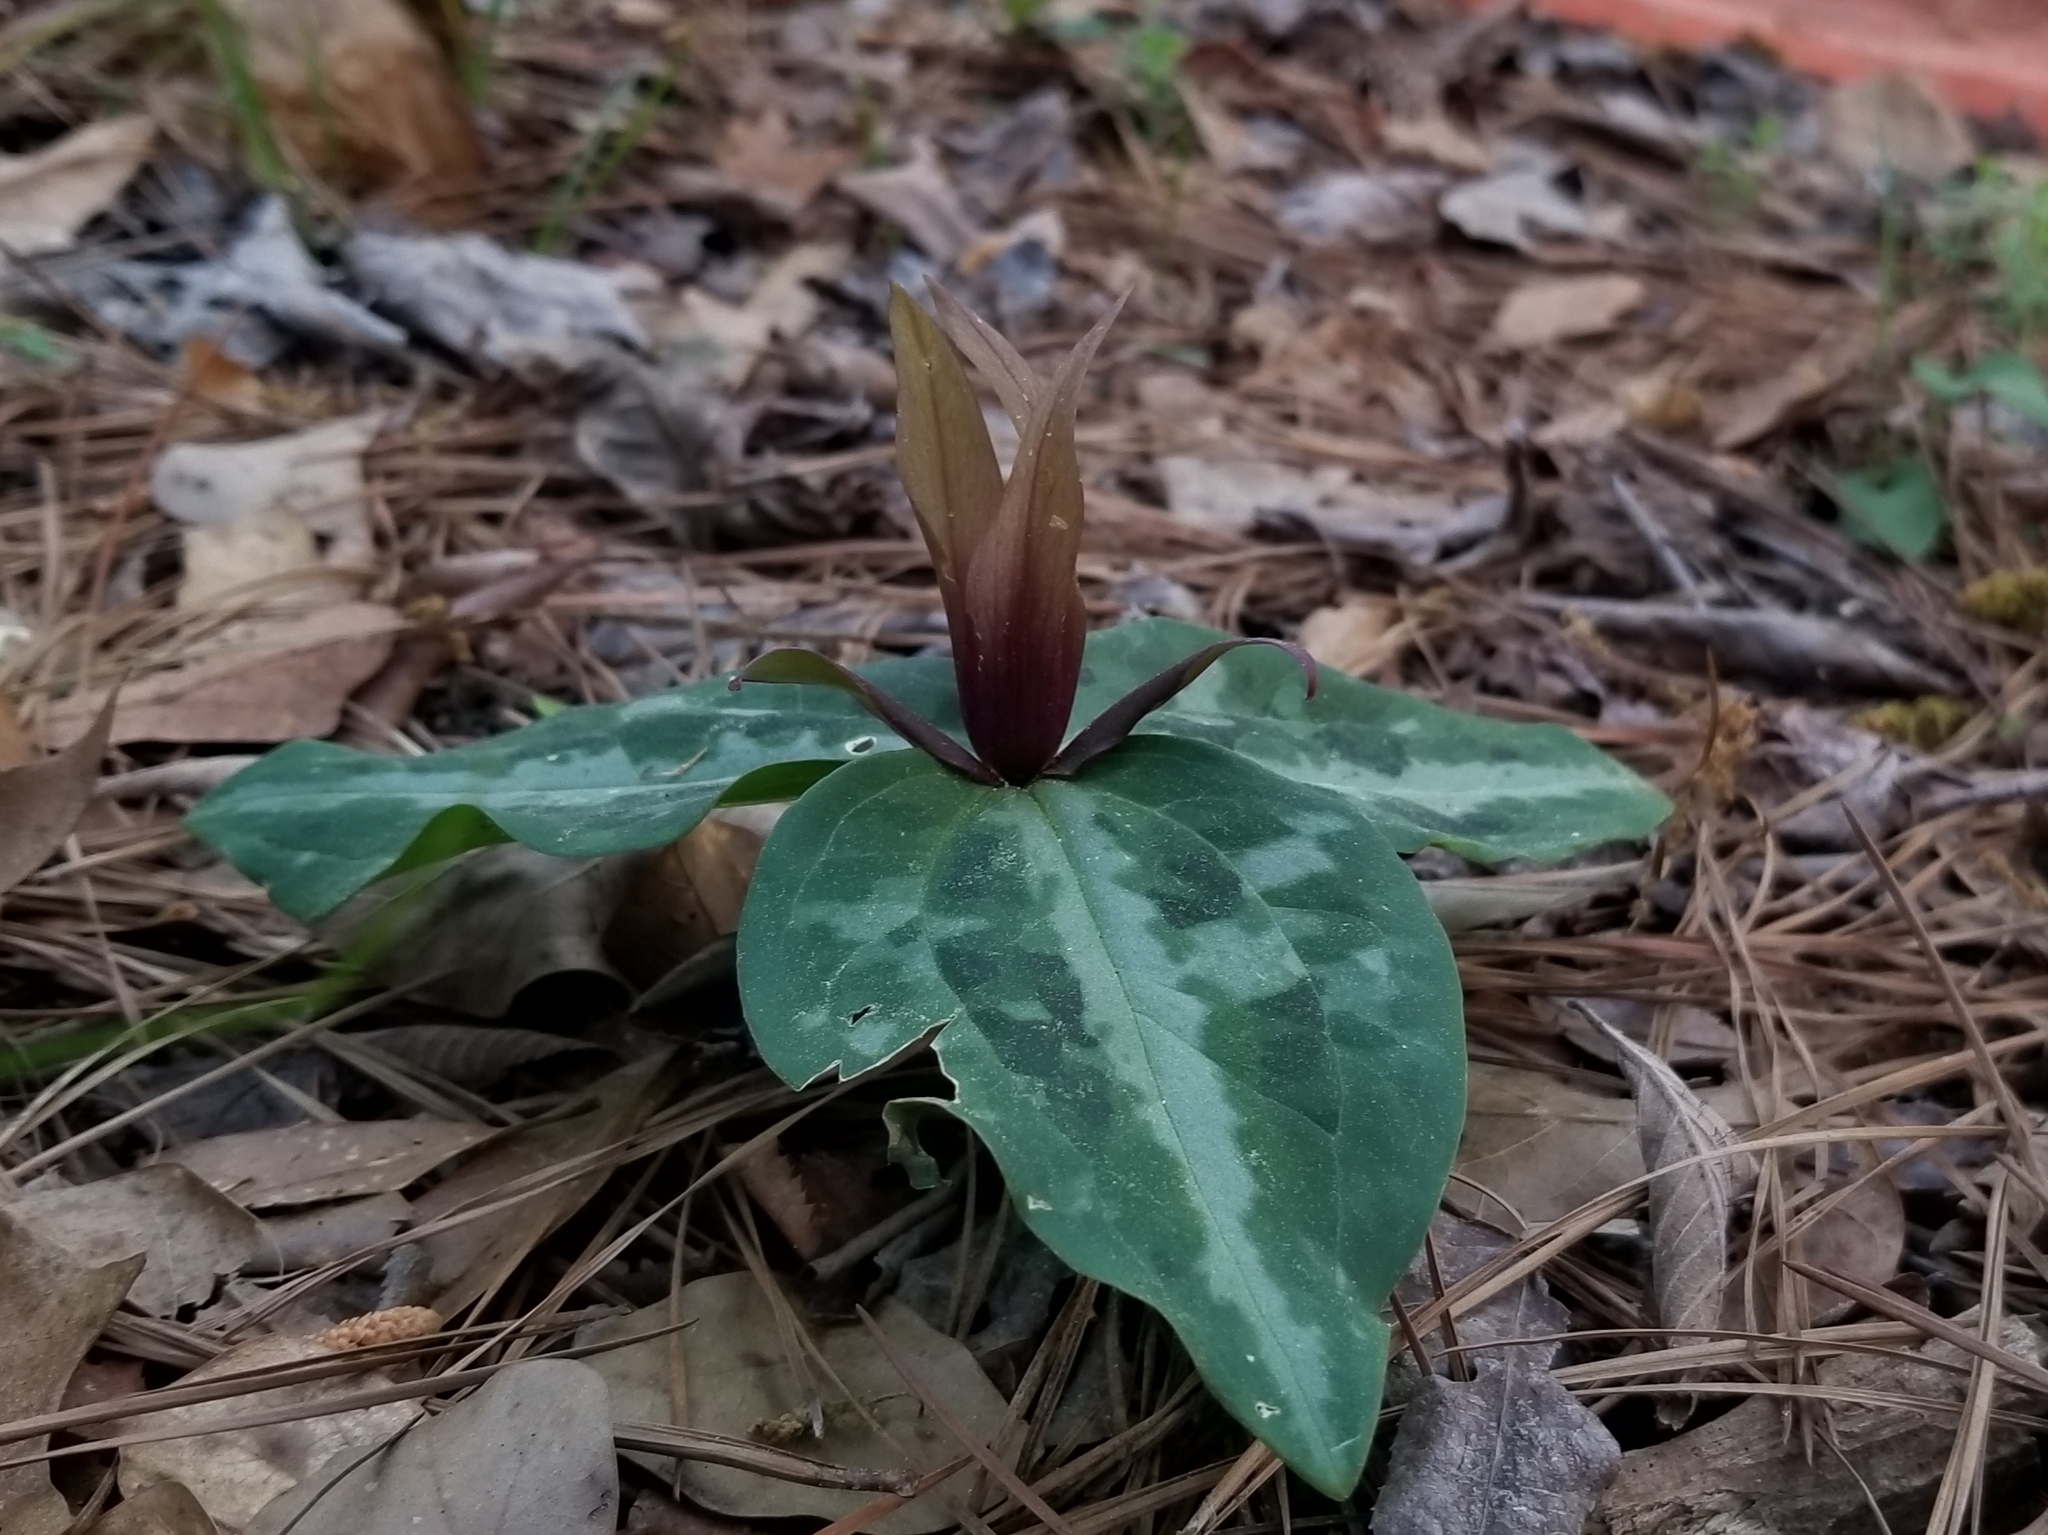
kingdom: Plantae
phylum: Tracheophyta
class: Liliopsida
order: Liliales
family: Melanthiaceae
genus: Trillium
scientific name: Trillium reliquum
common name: Relict trillium
